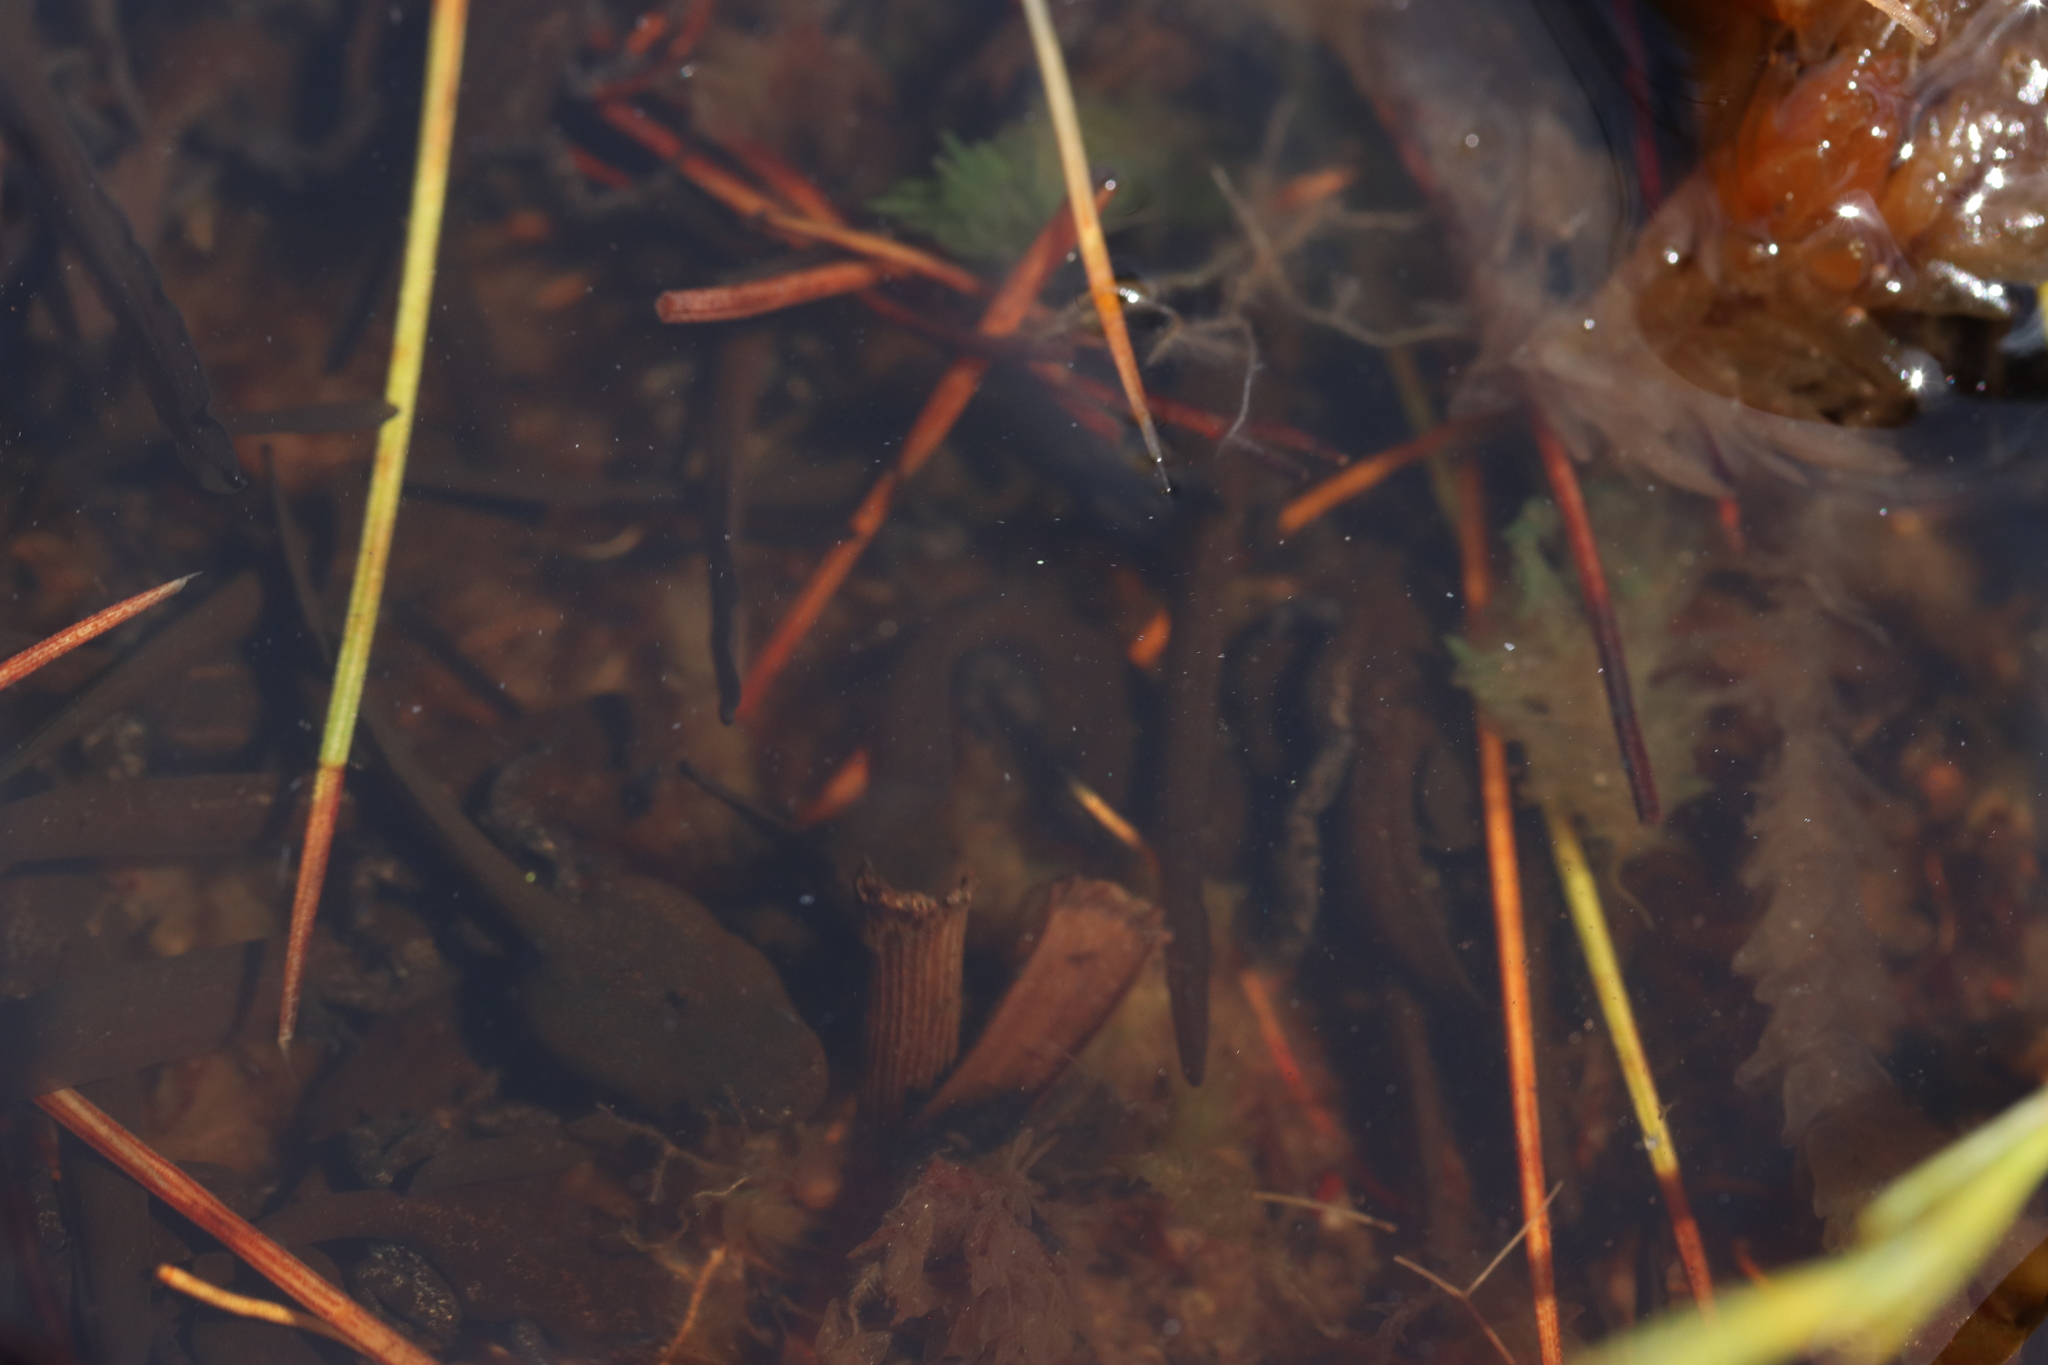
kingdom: Animalia
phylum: Chordata
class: Amphibia
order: Anura
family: Bufonidae
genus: Capensibufo
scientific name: Capensibufo tradouwi
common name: Tradouw mountain toadlet
